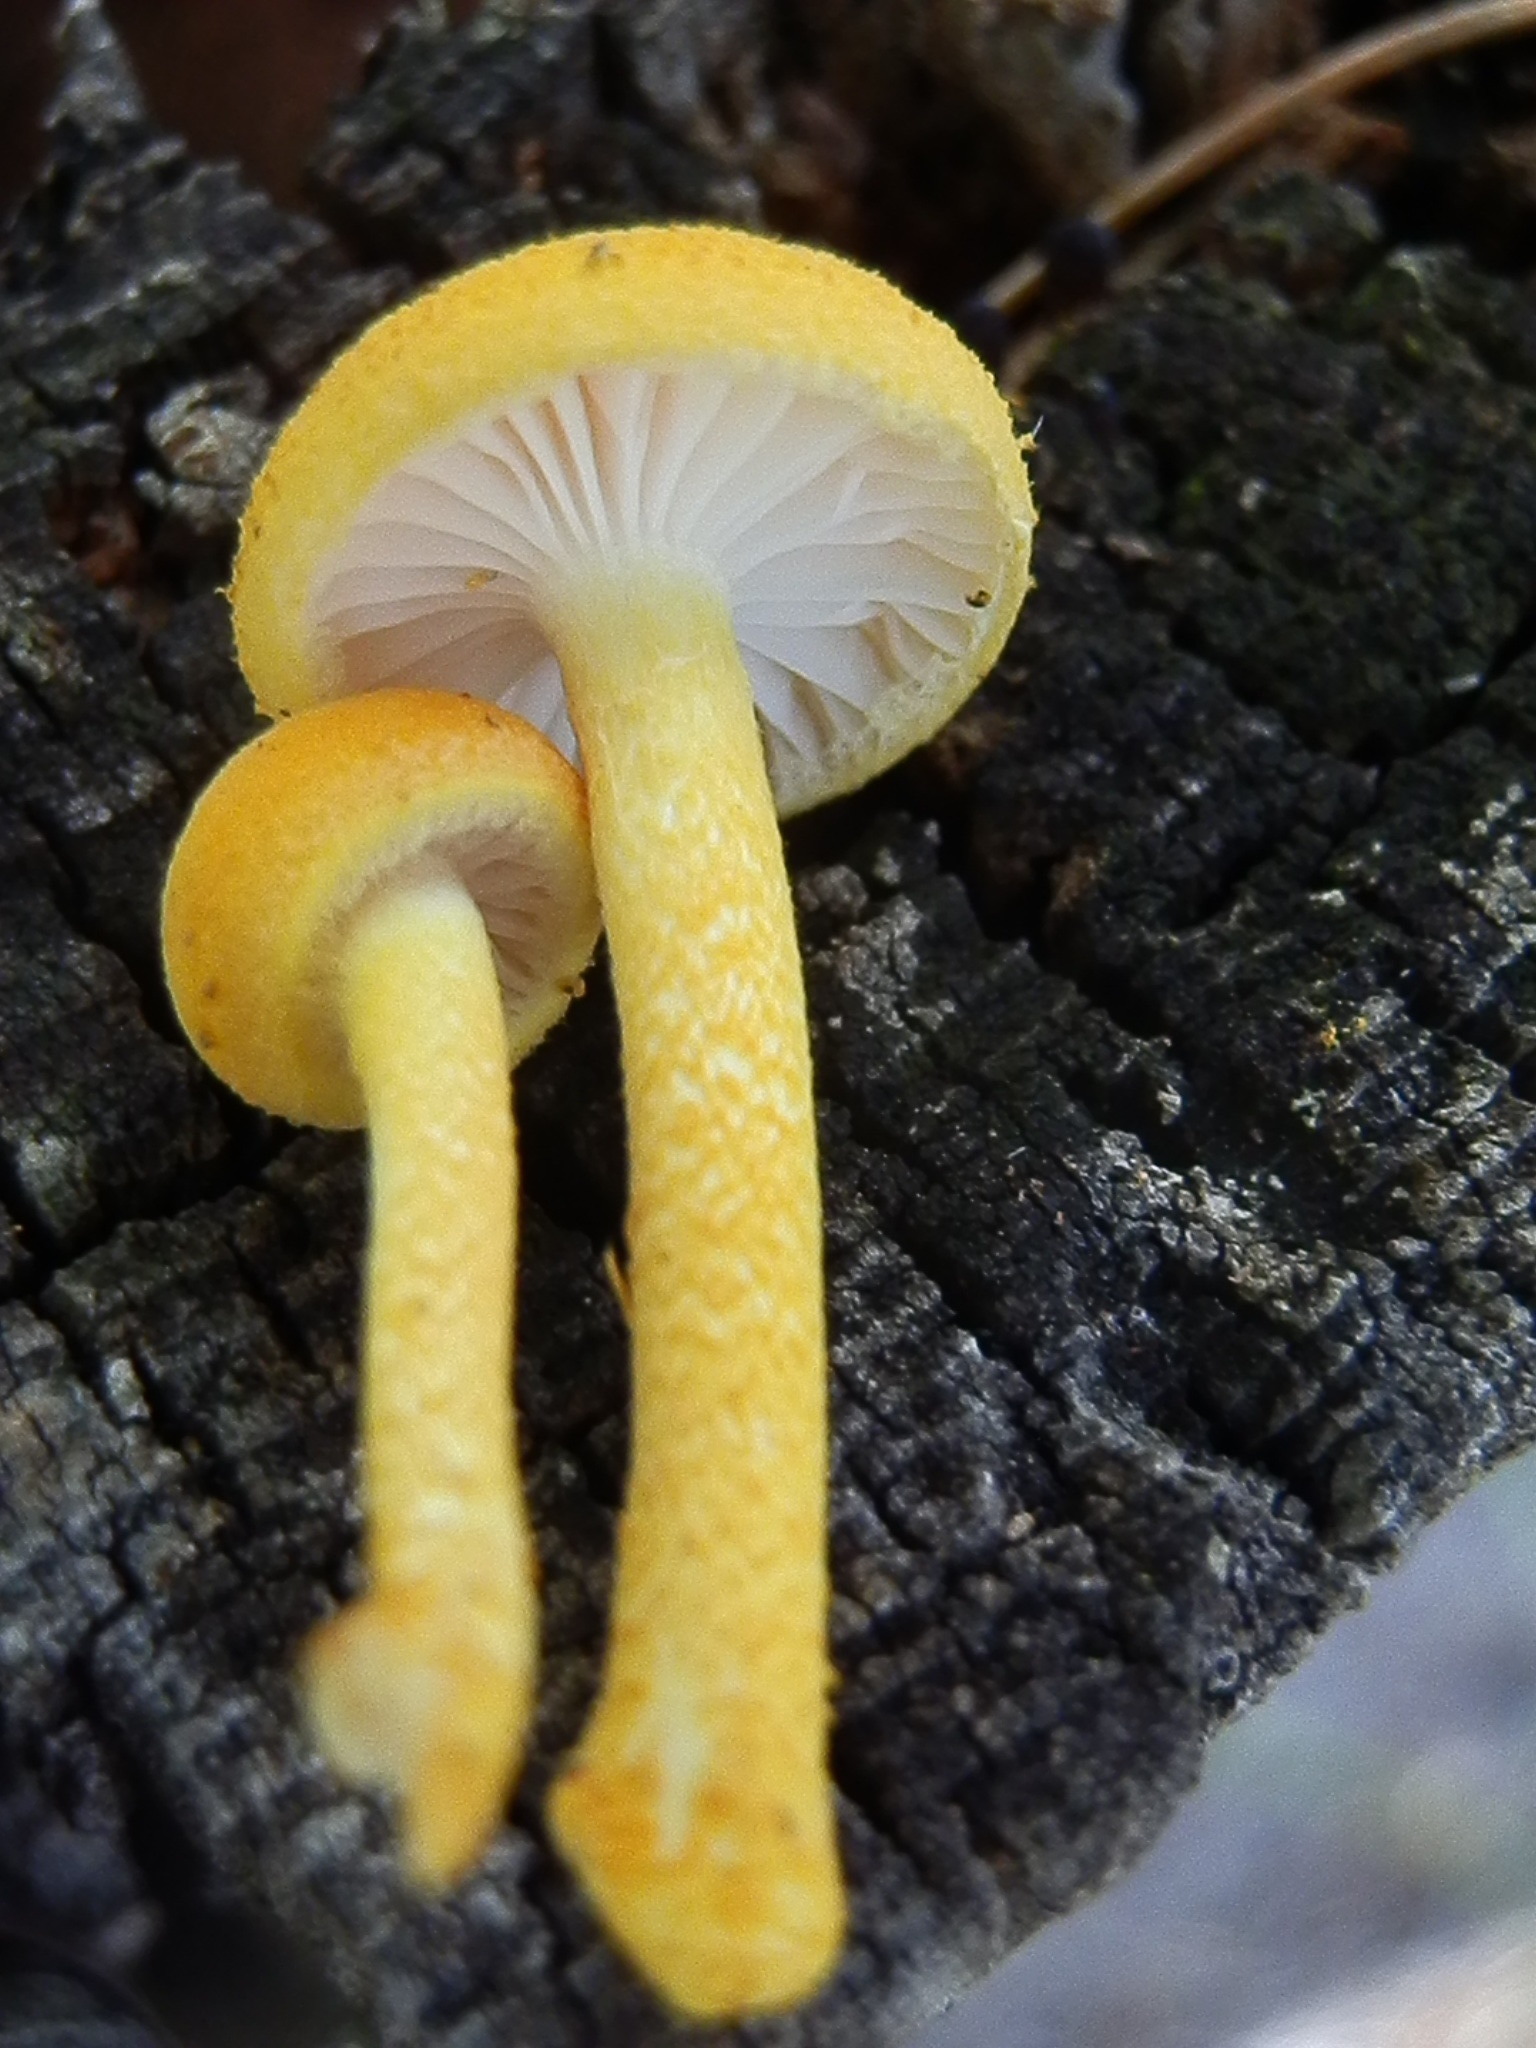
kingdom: Fungi
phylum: Basidiomycota
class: Agaricomycetes
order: Agaricales
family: Physalacriaceae
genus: Cyptotrama
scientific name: Cyptotrama chrysopepla
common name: Golden coincap
